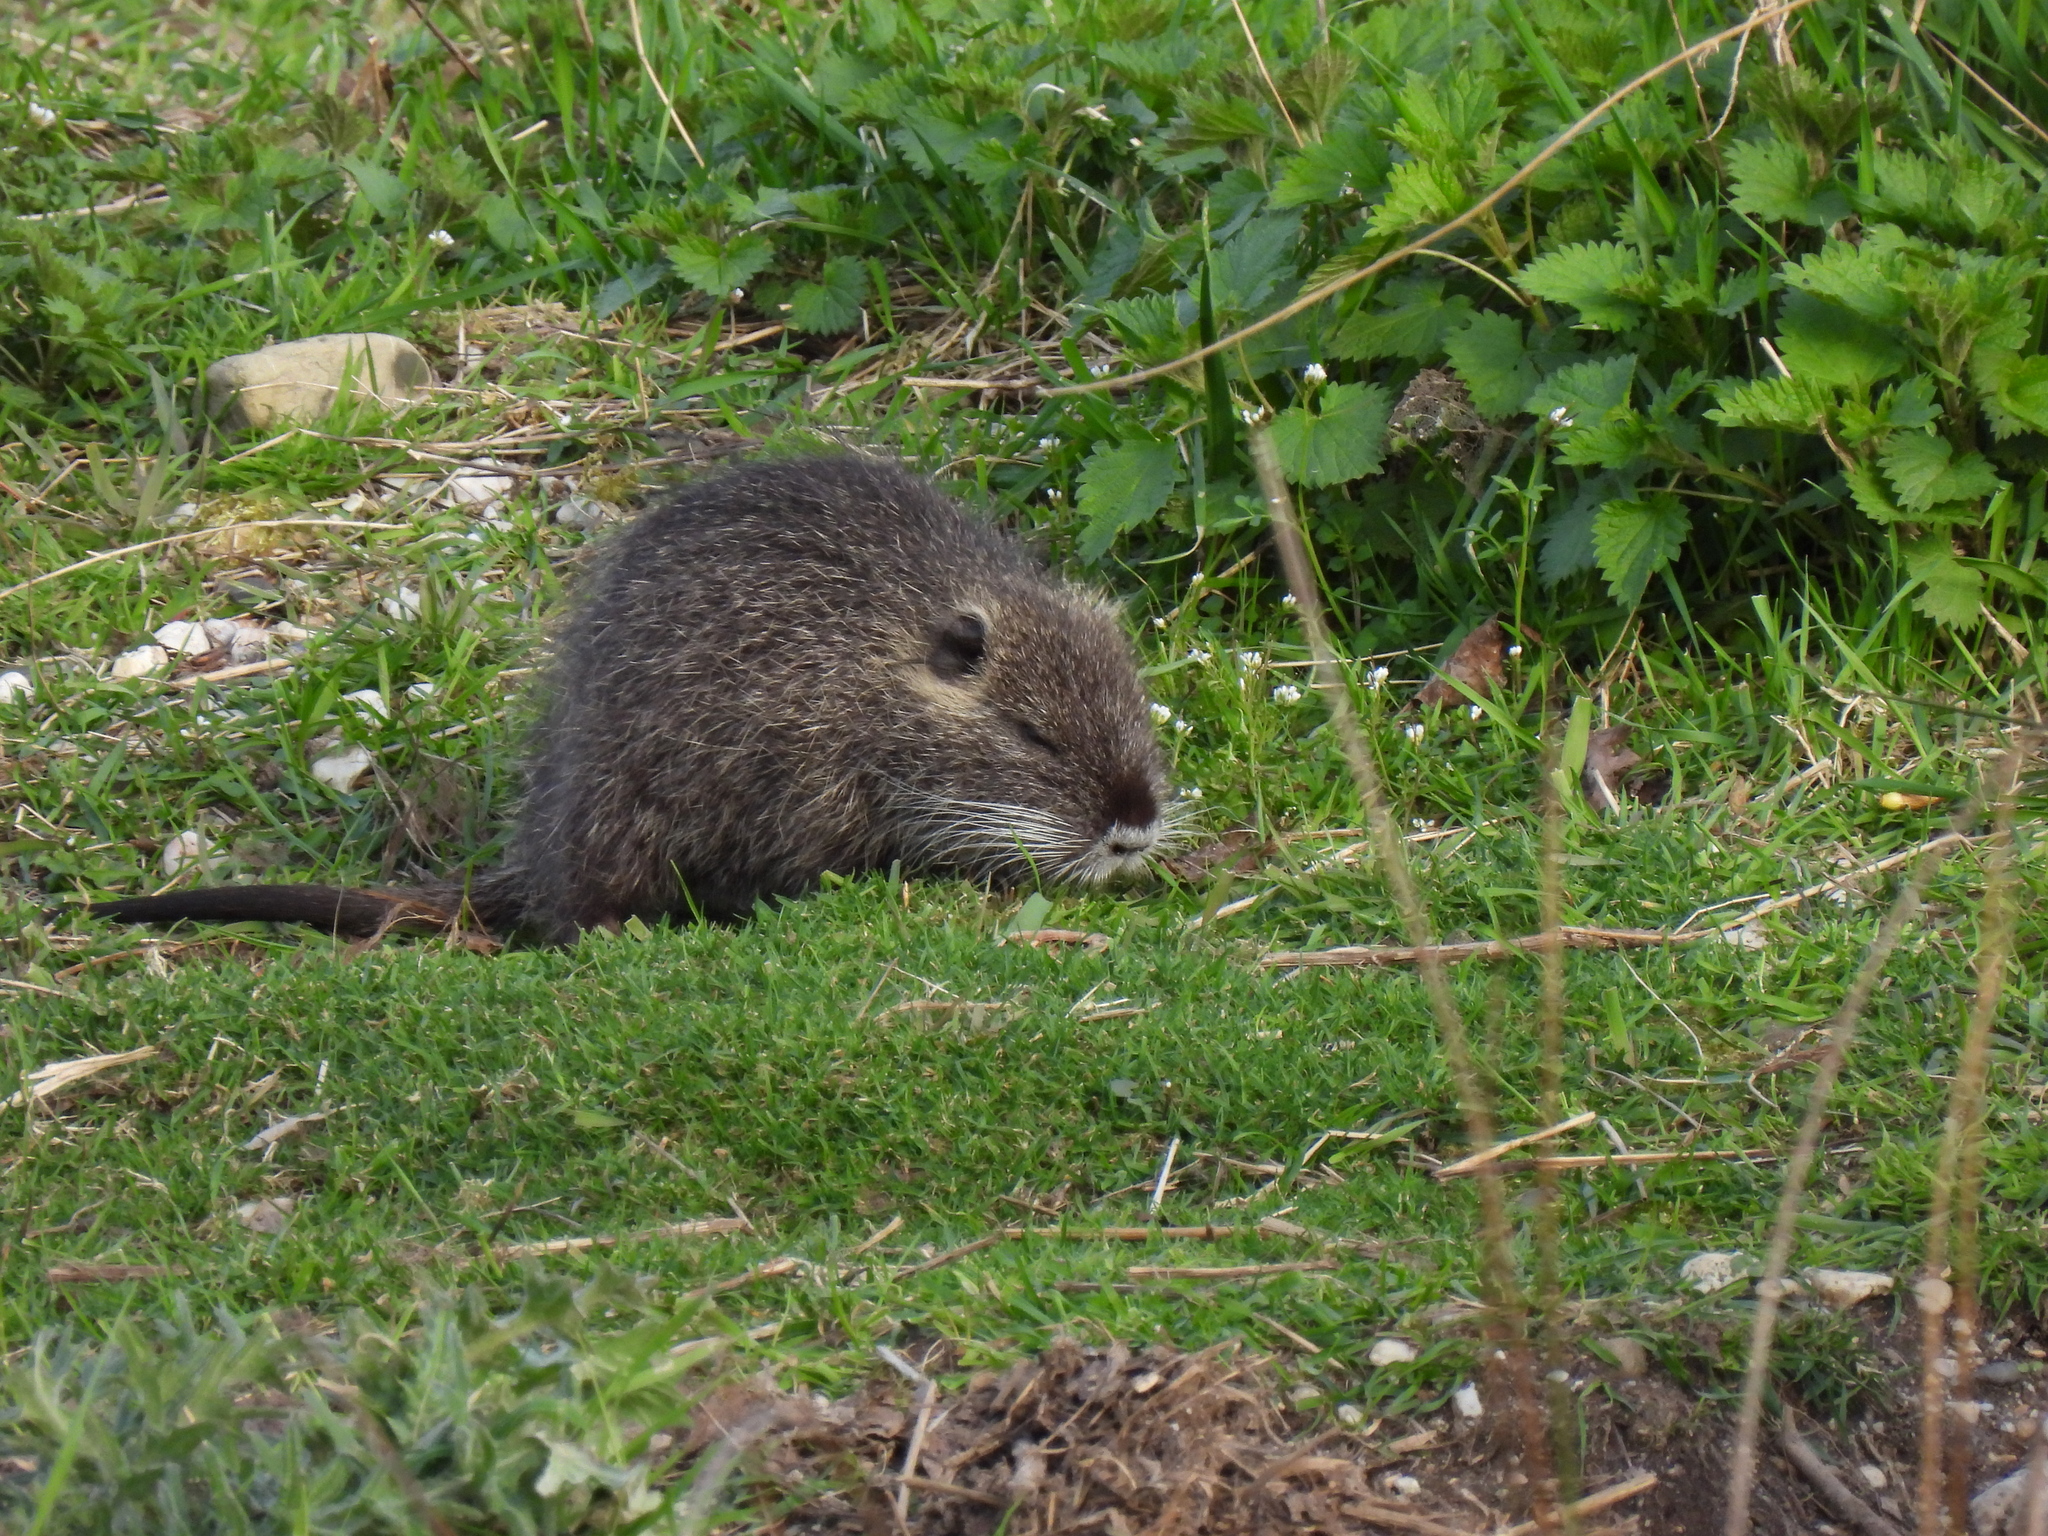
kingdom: Animalia
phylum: Chordata
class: Mammalia
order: Rodentia
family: Myocastoridae
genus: Myocastor
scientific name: Myocastor coypus
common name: Coypu
